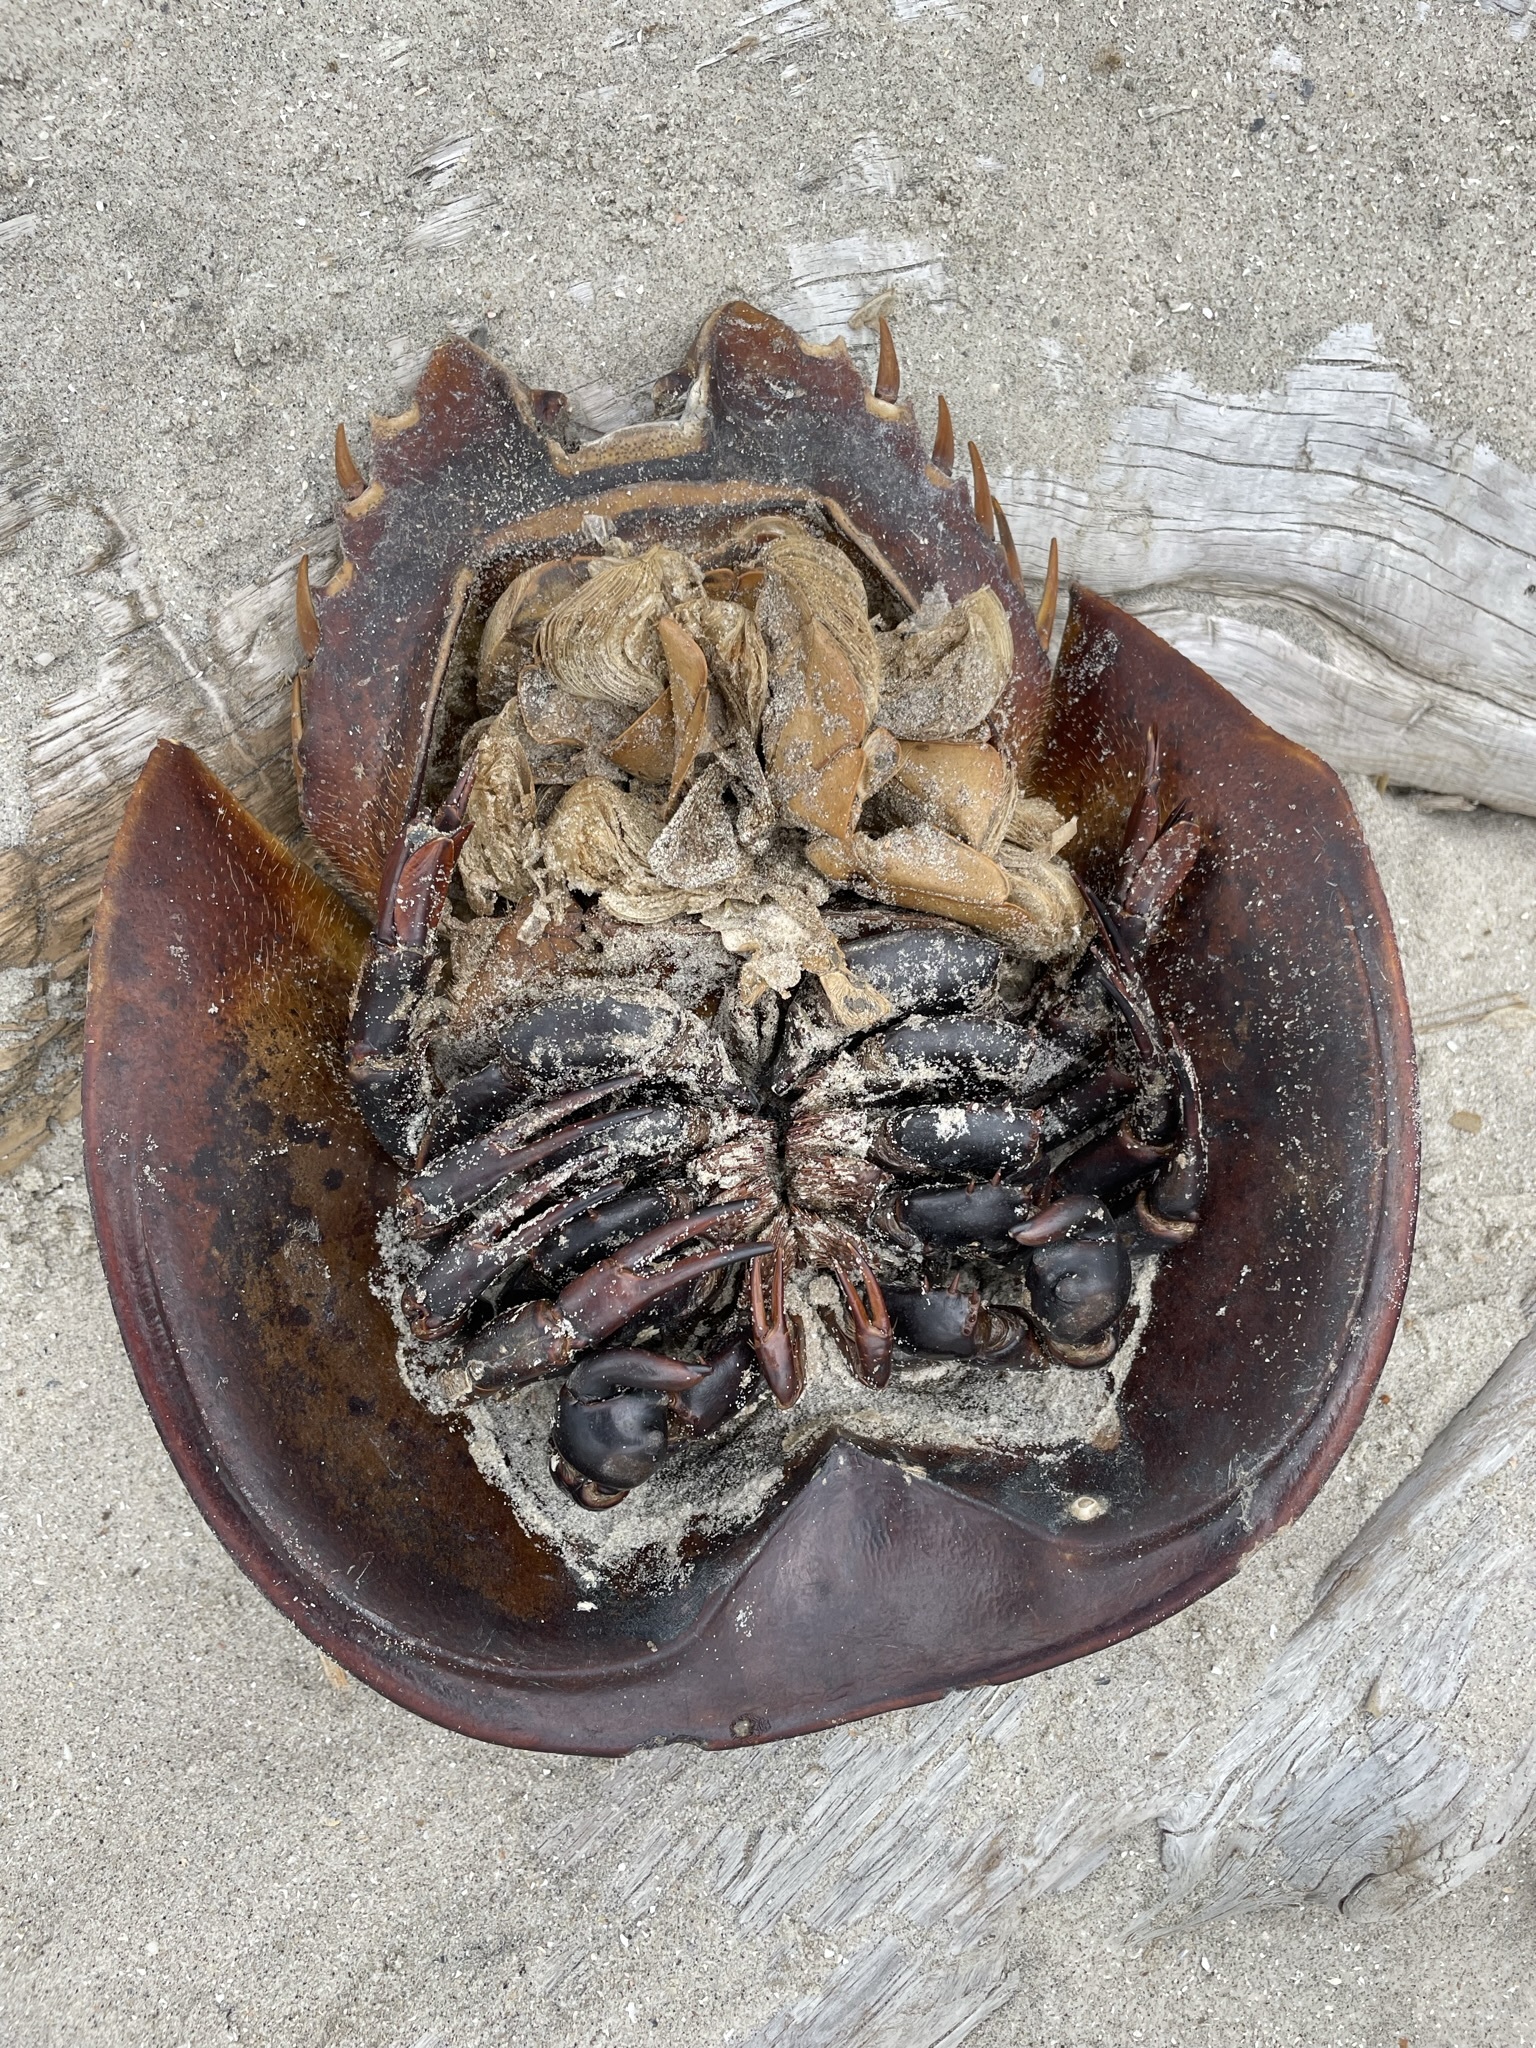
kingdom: Animalia
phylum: Arthropoda
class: Merostomata
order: Xiphosurida
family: Limulidae
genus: Limulus
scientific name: Limulus polyphemus
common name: Horseshoe crab
